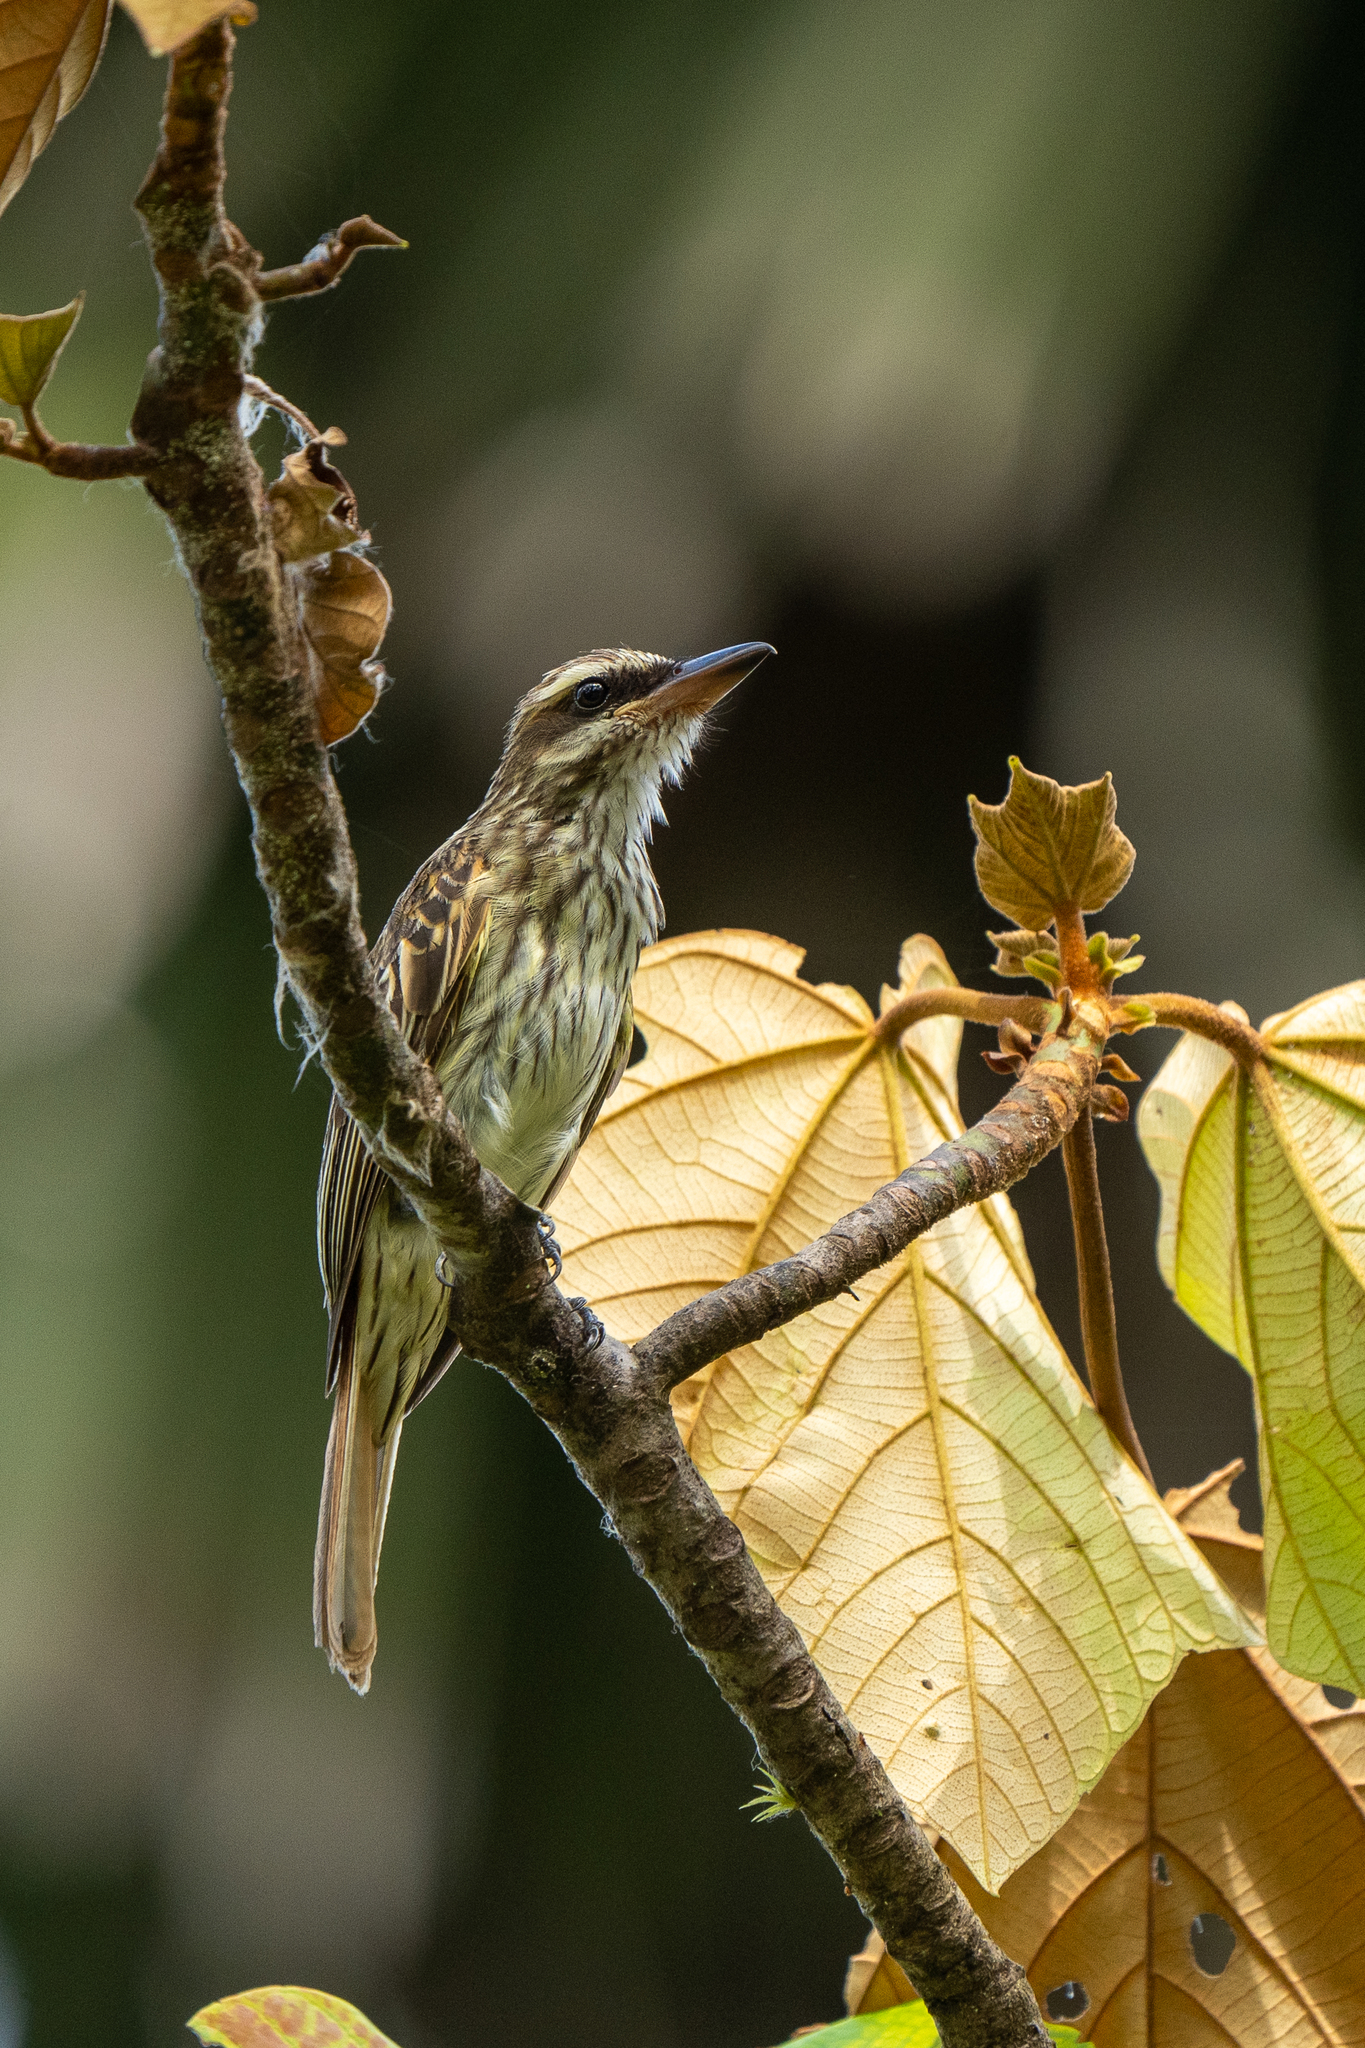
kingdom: Animalia
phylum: Chordata
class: Aves
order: Passeriformes
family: Tyrannidae
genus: Myiodynastes
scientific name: Myiodynastes maculatus
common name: Streaked flycatcher
